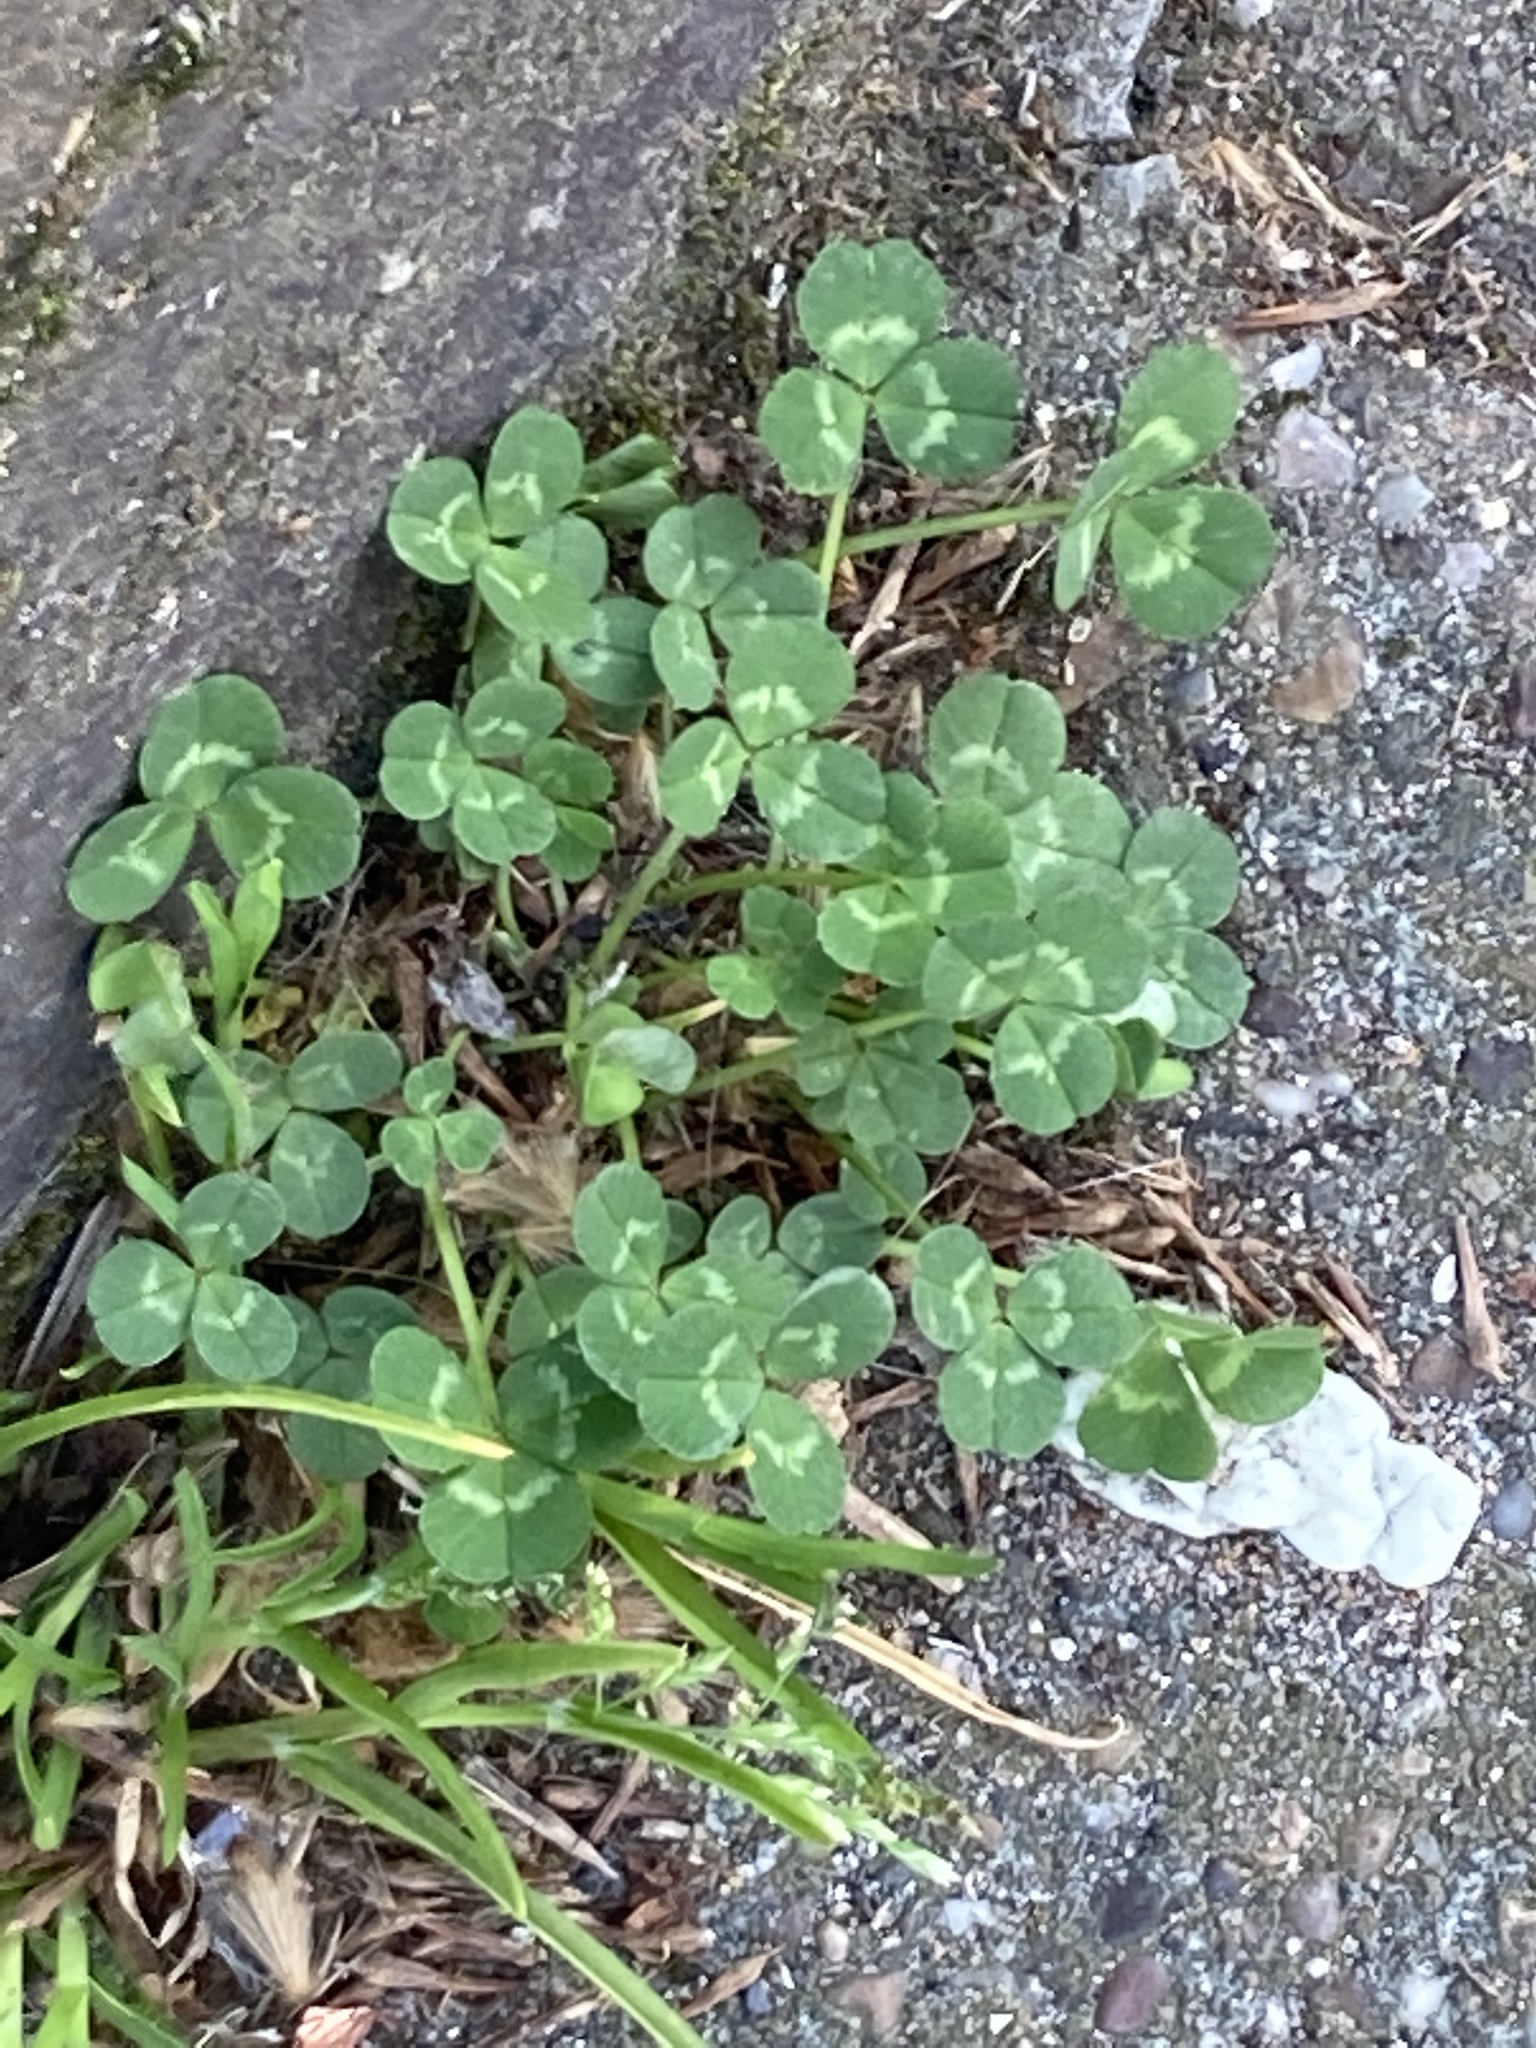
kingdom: Plantae
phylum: Tracheophyta
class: Magnoliopsida
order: Fabales
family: Fabaceae
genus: Trifolium
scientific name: Trifolium repens
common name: White clover
